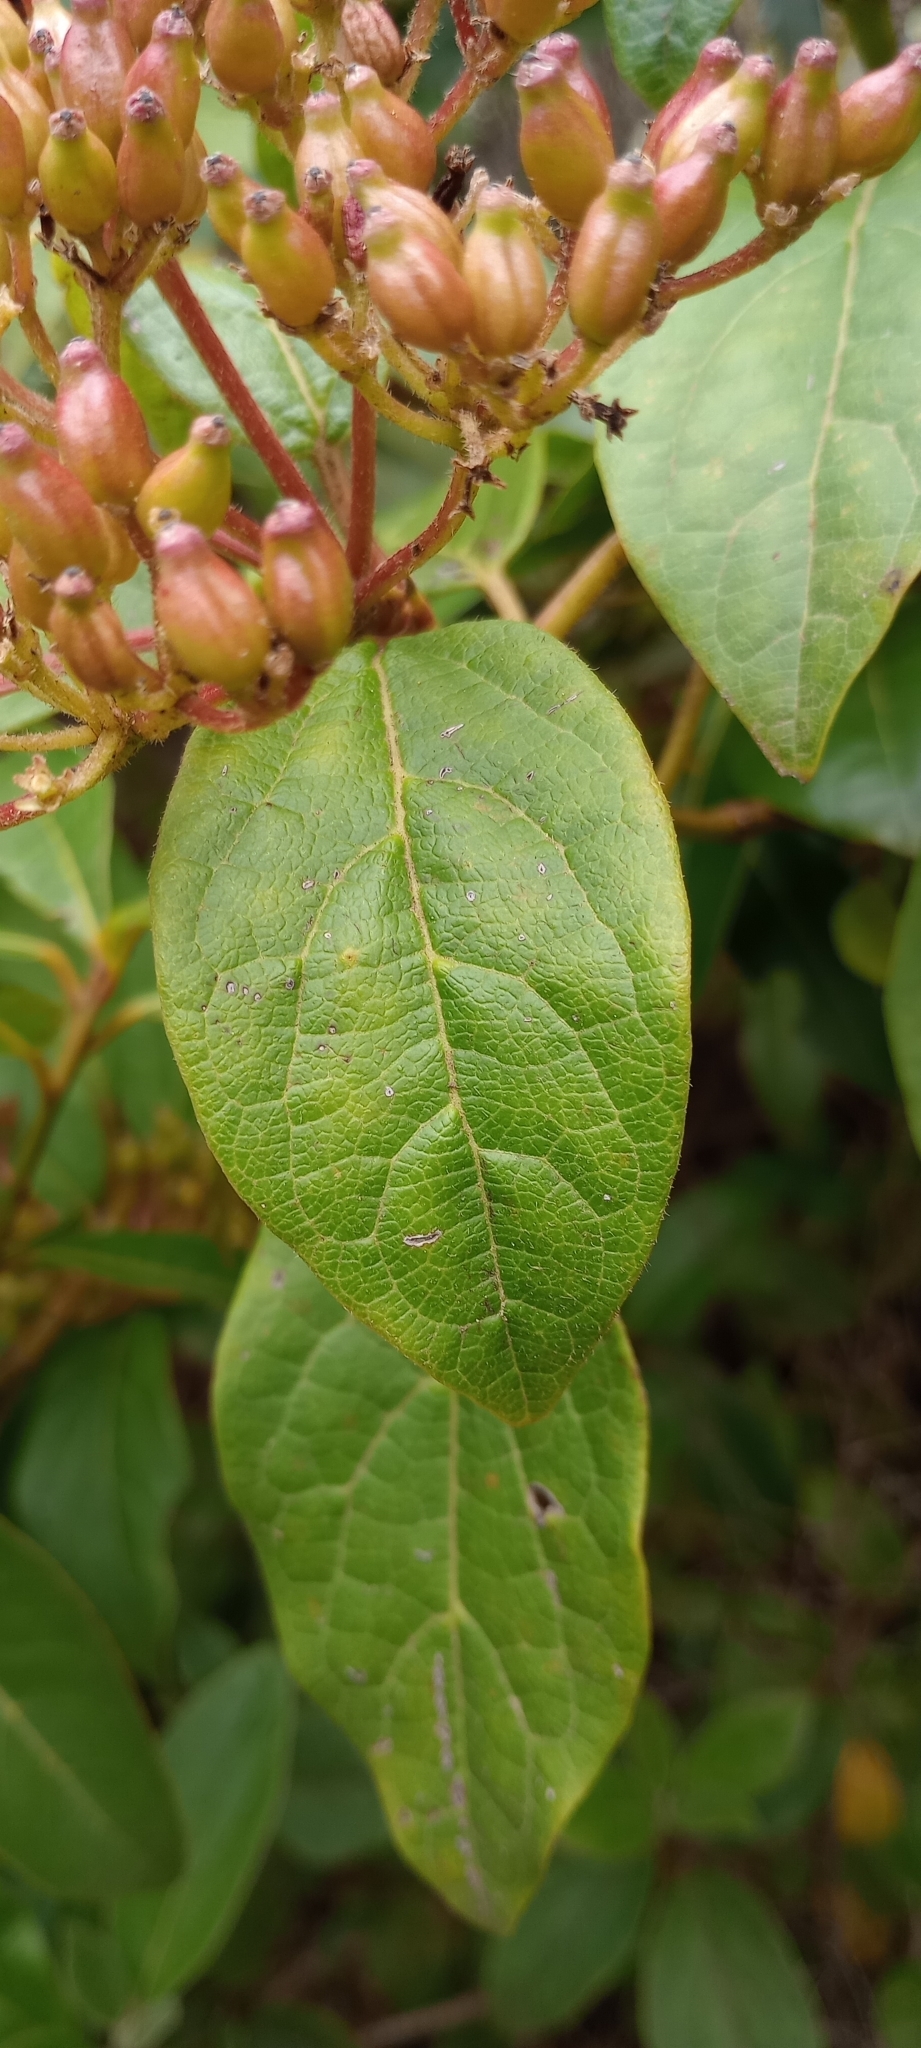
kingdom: Plantae
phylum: Tracheophyta
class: Magnoliopsida
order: Dipsacales
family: Viburnaceae
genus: Viburnum
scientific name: Viburnum rugosum
